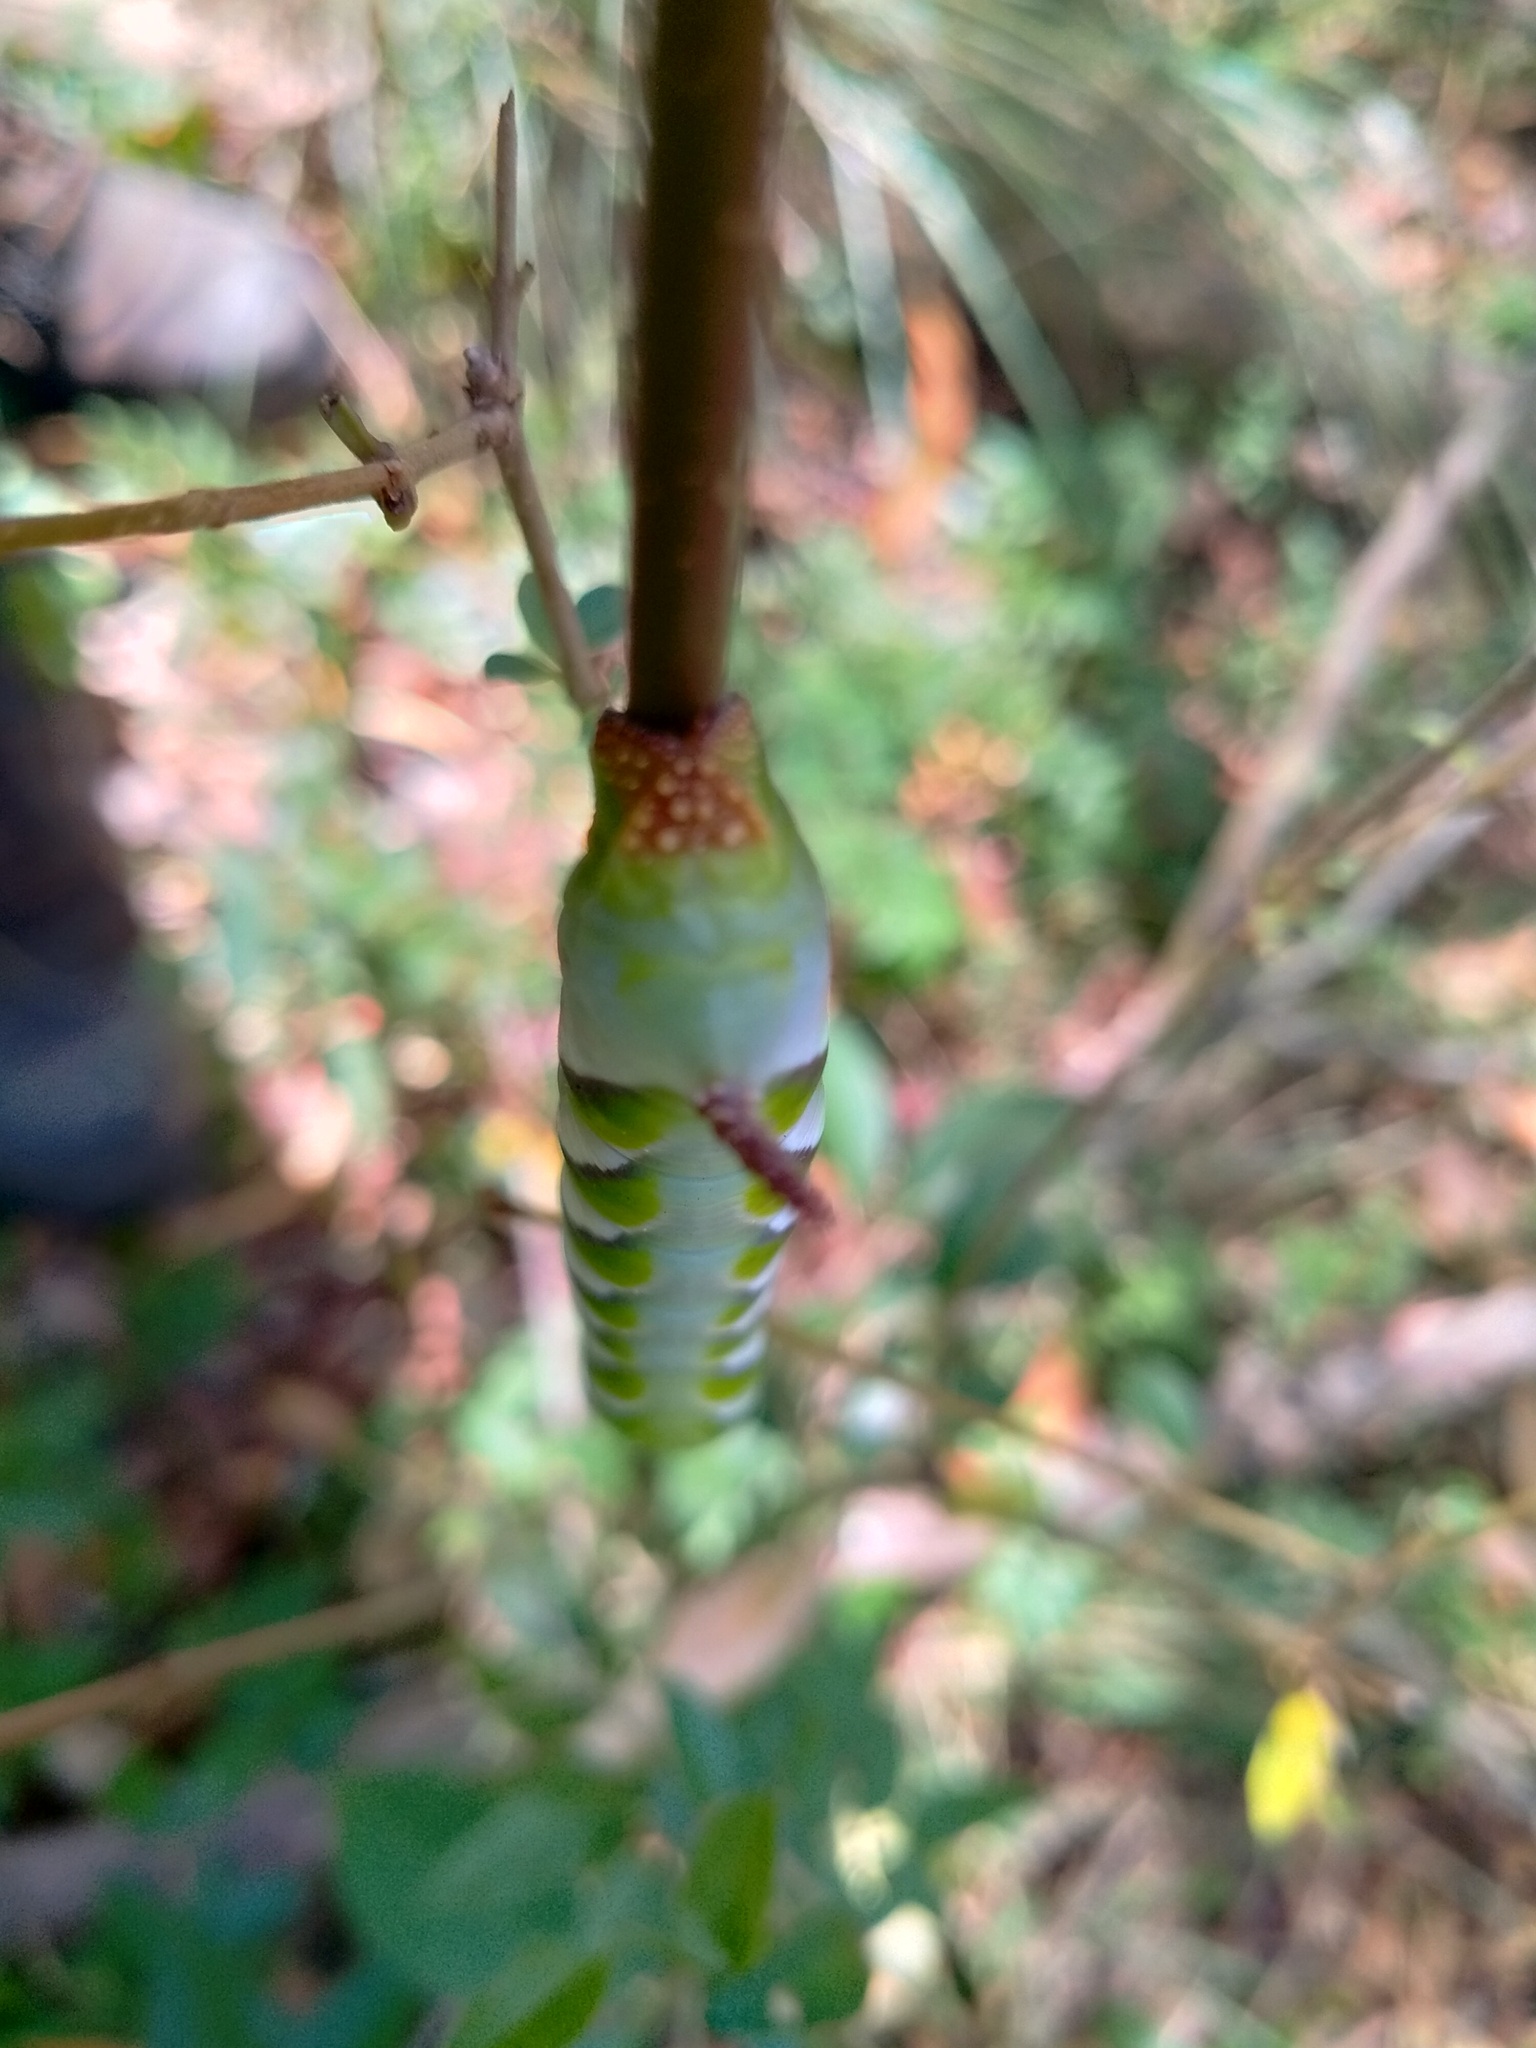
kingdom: Animalia
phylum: Arthropoda
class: Insecta
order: Lepidoptera
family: Sphingidae
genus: Psilogramma
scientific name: Psilogramma casuarinae
